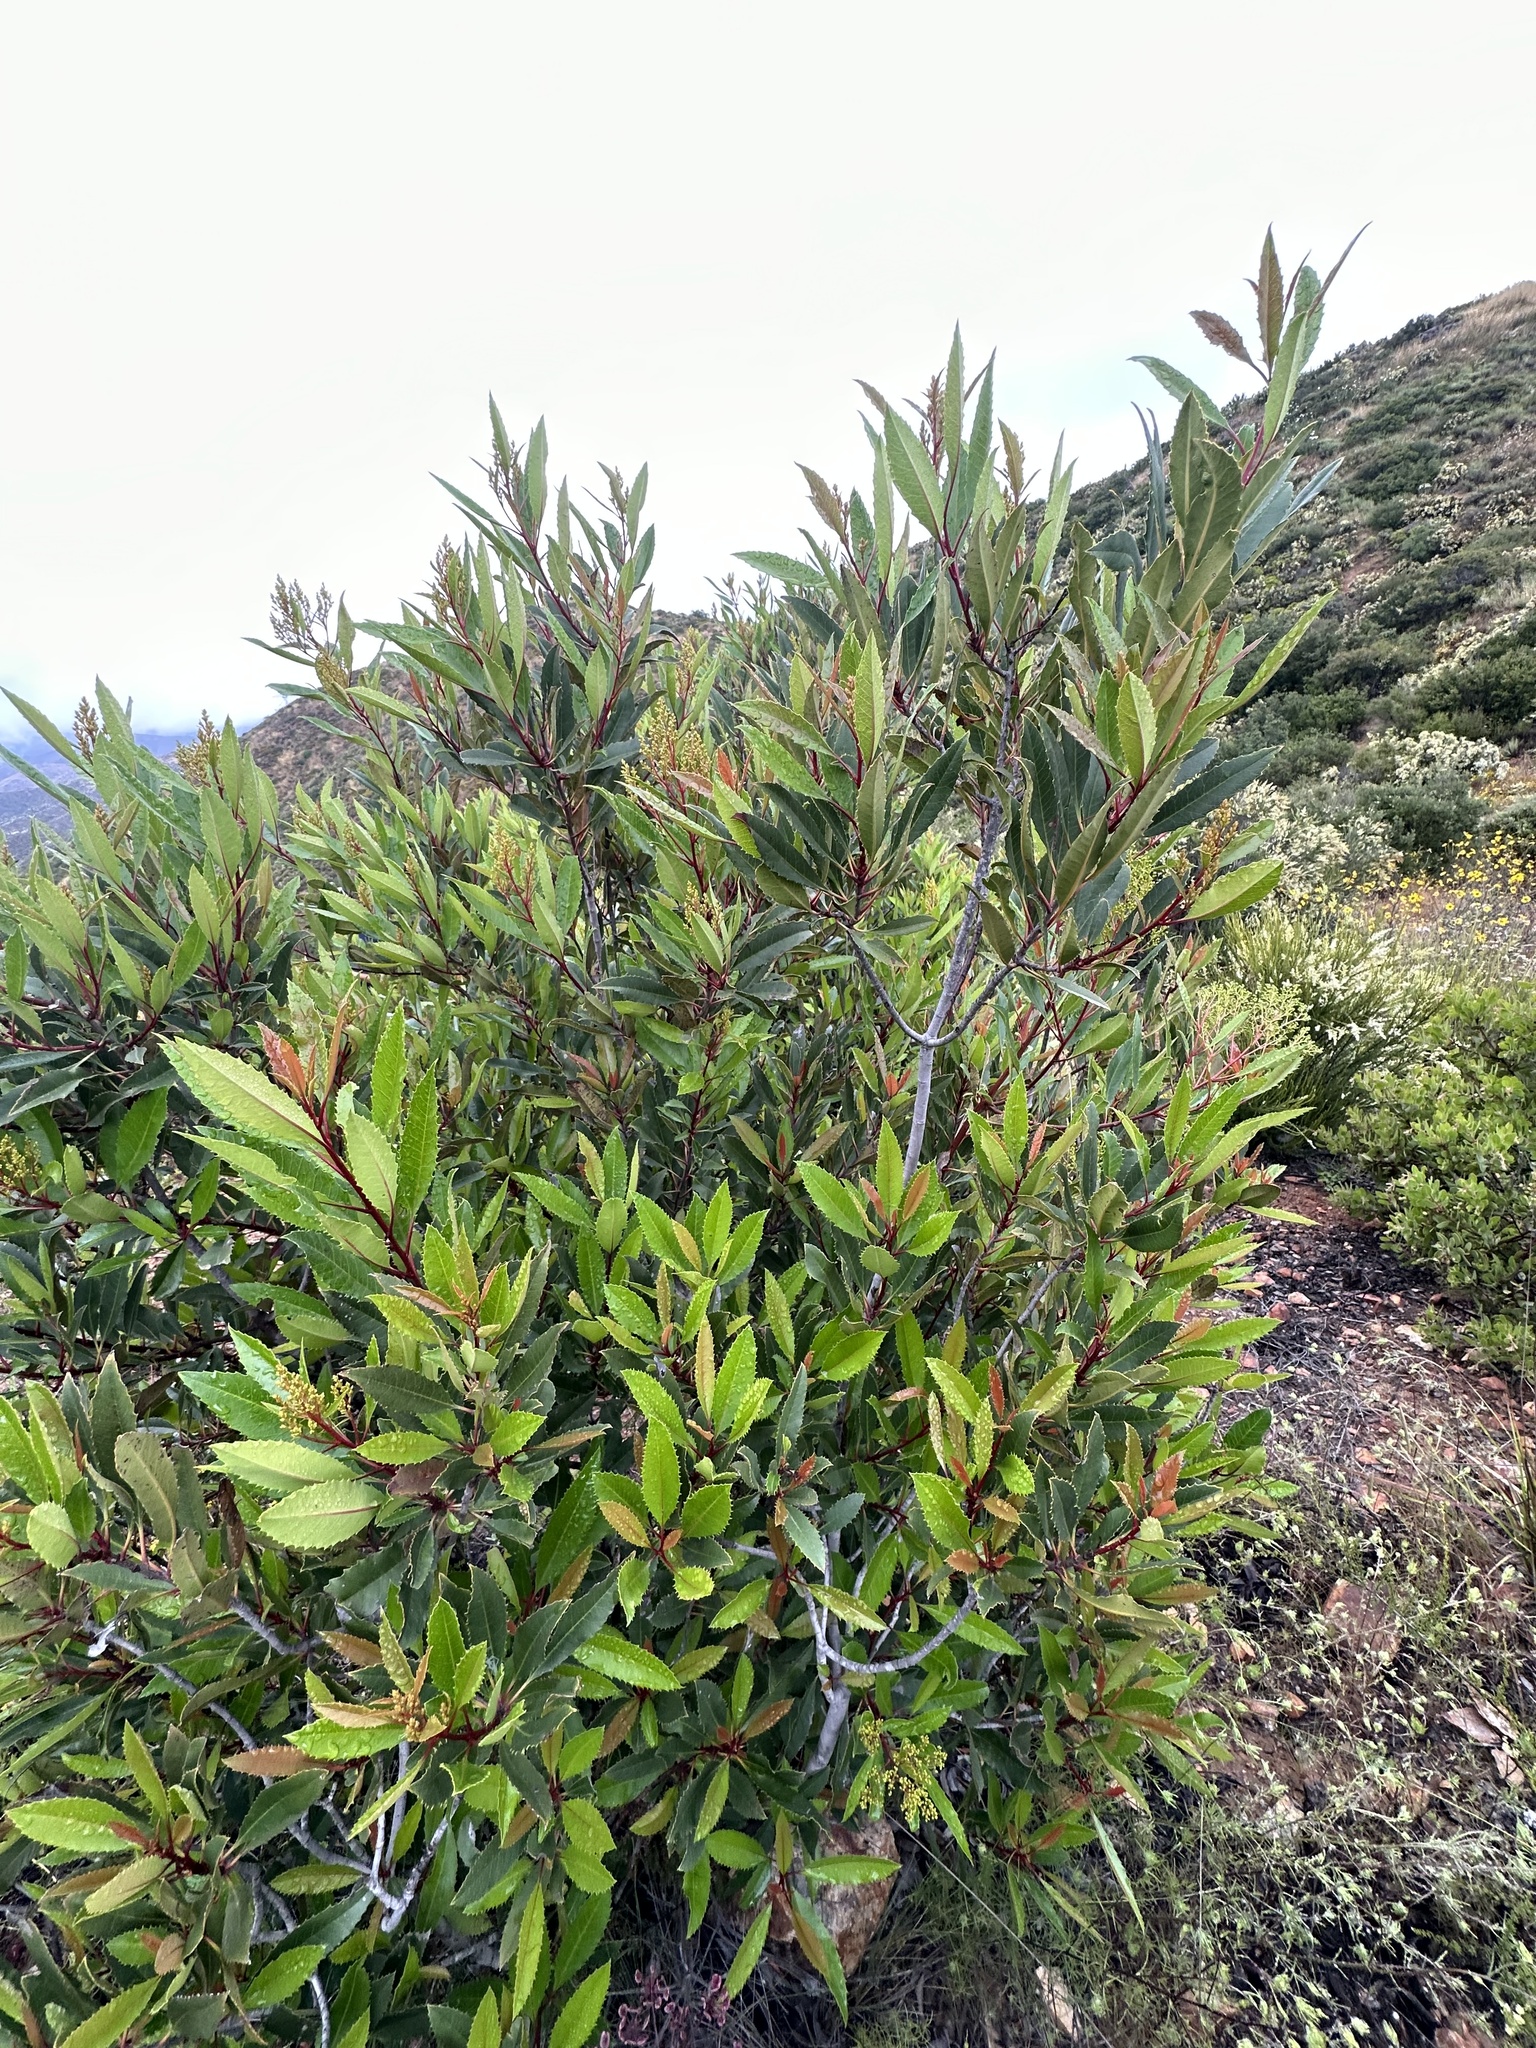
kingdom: Plantae
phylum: Tracheophyta
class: Magnoliopsida
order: Rosales
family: Rosaceae
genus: Heteromeles
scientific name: Heteromeles arbutifolia
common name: California-holly
